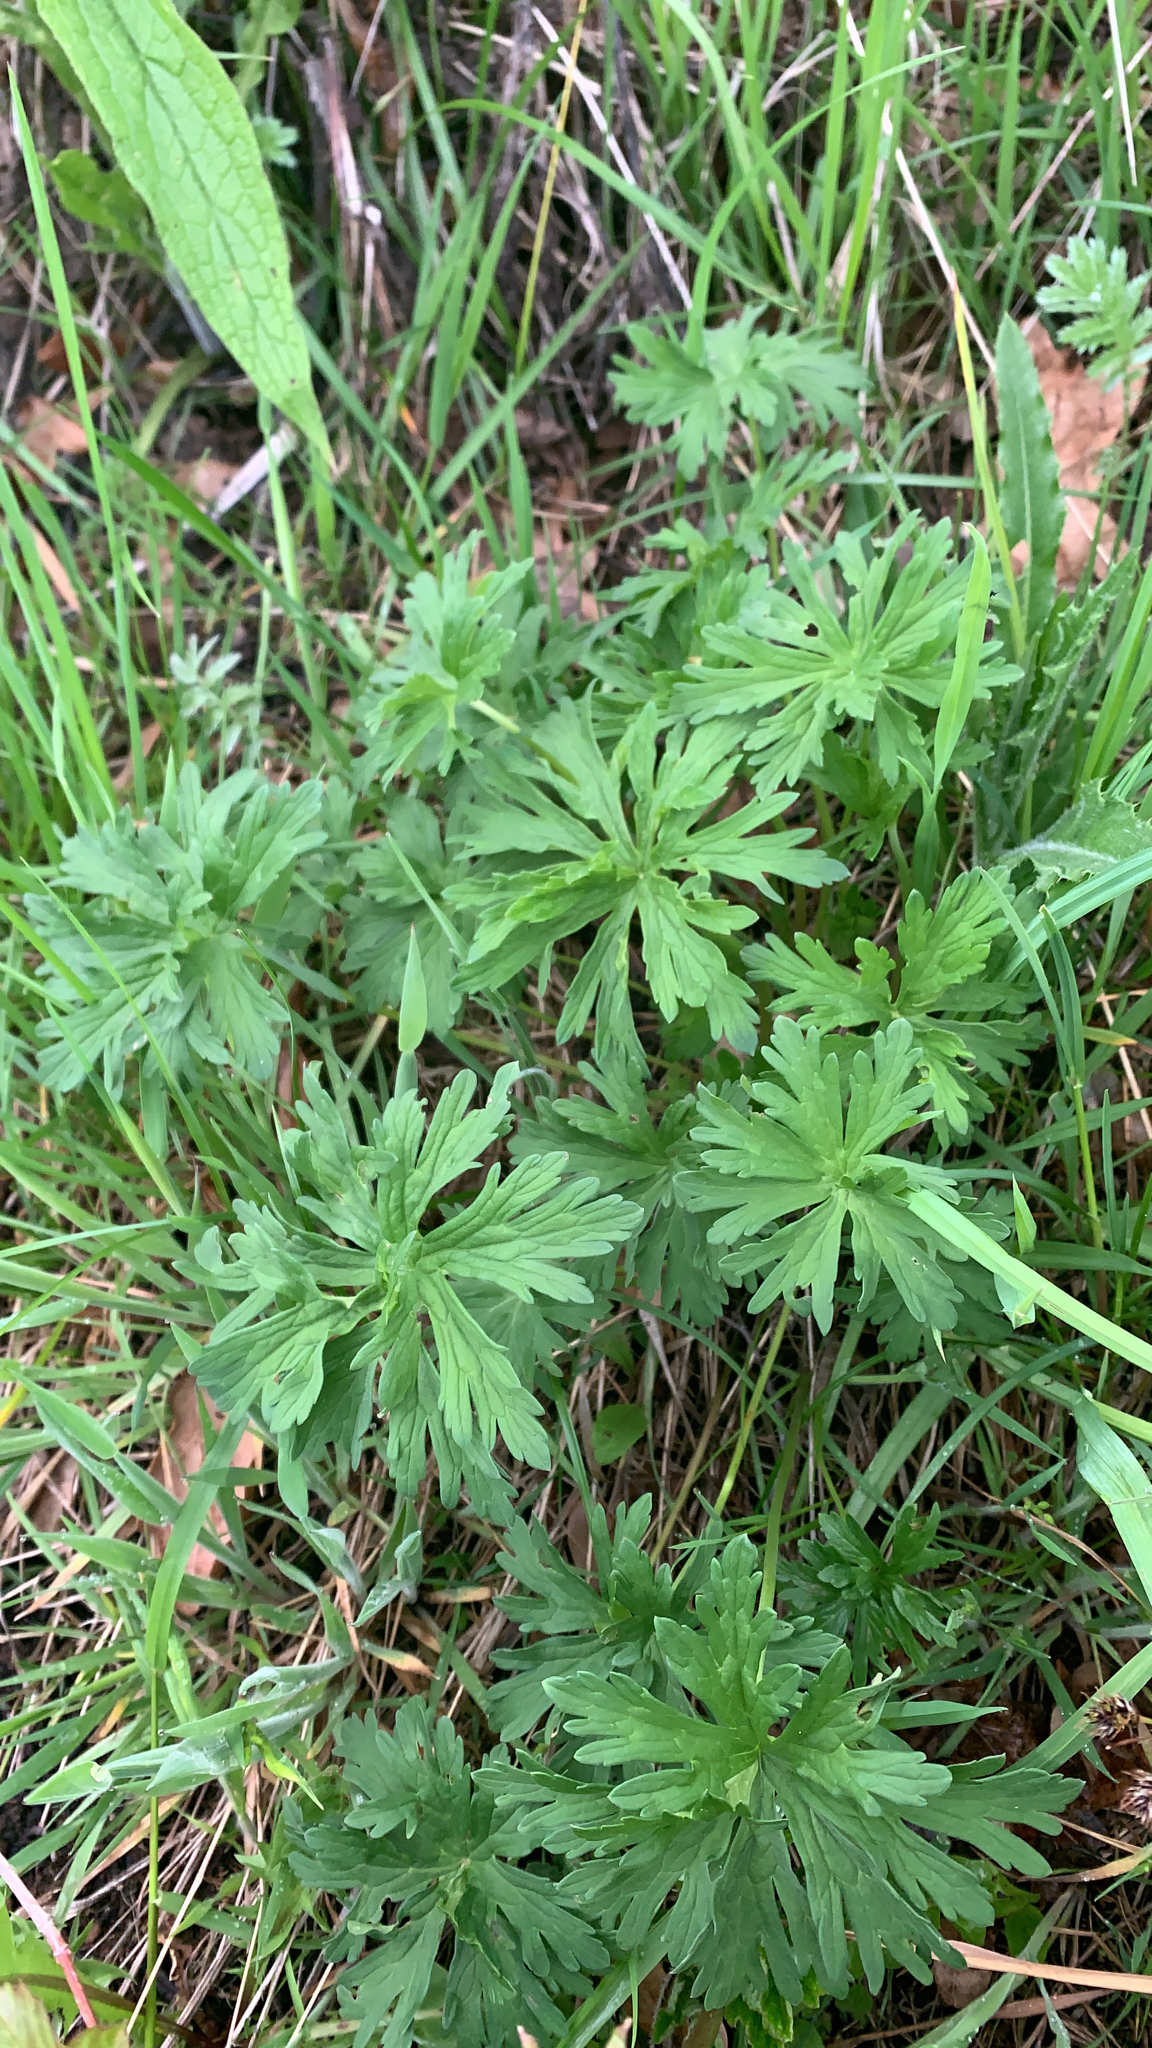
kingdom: Plantae
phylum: Tracheophyta
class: Magnoliopsida
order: Geraniales
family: Geraniaceae
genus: Geranium
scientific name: Geranium pratense
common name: Meadow crane's-bill
